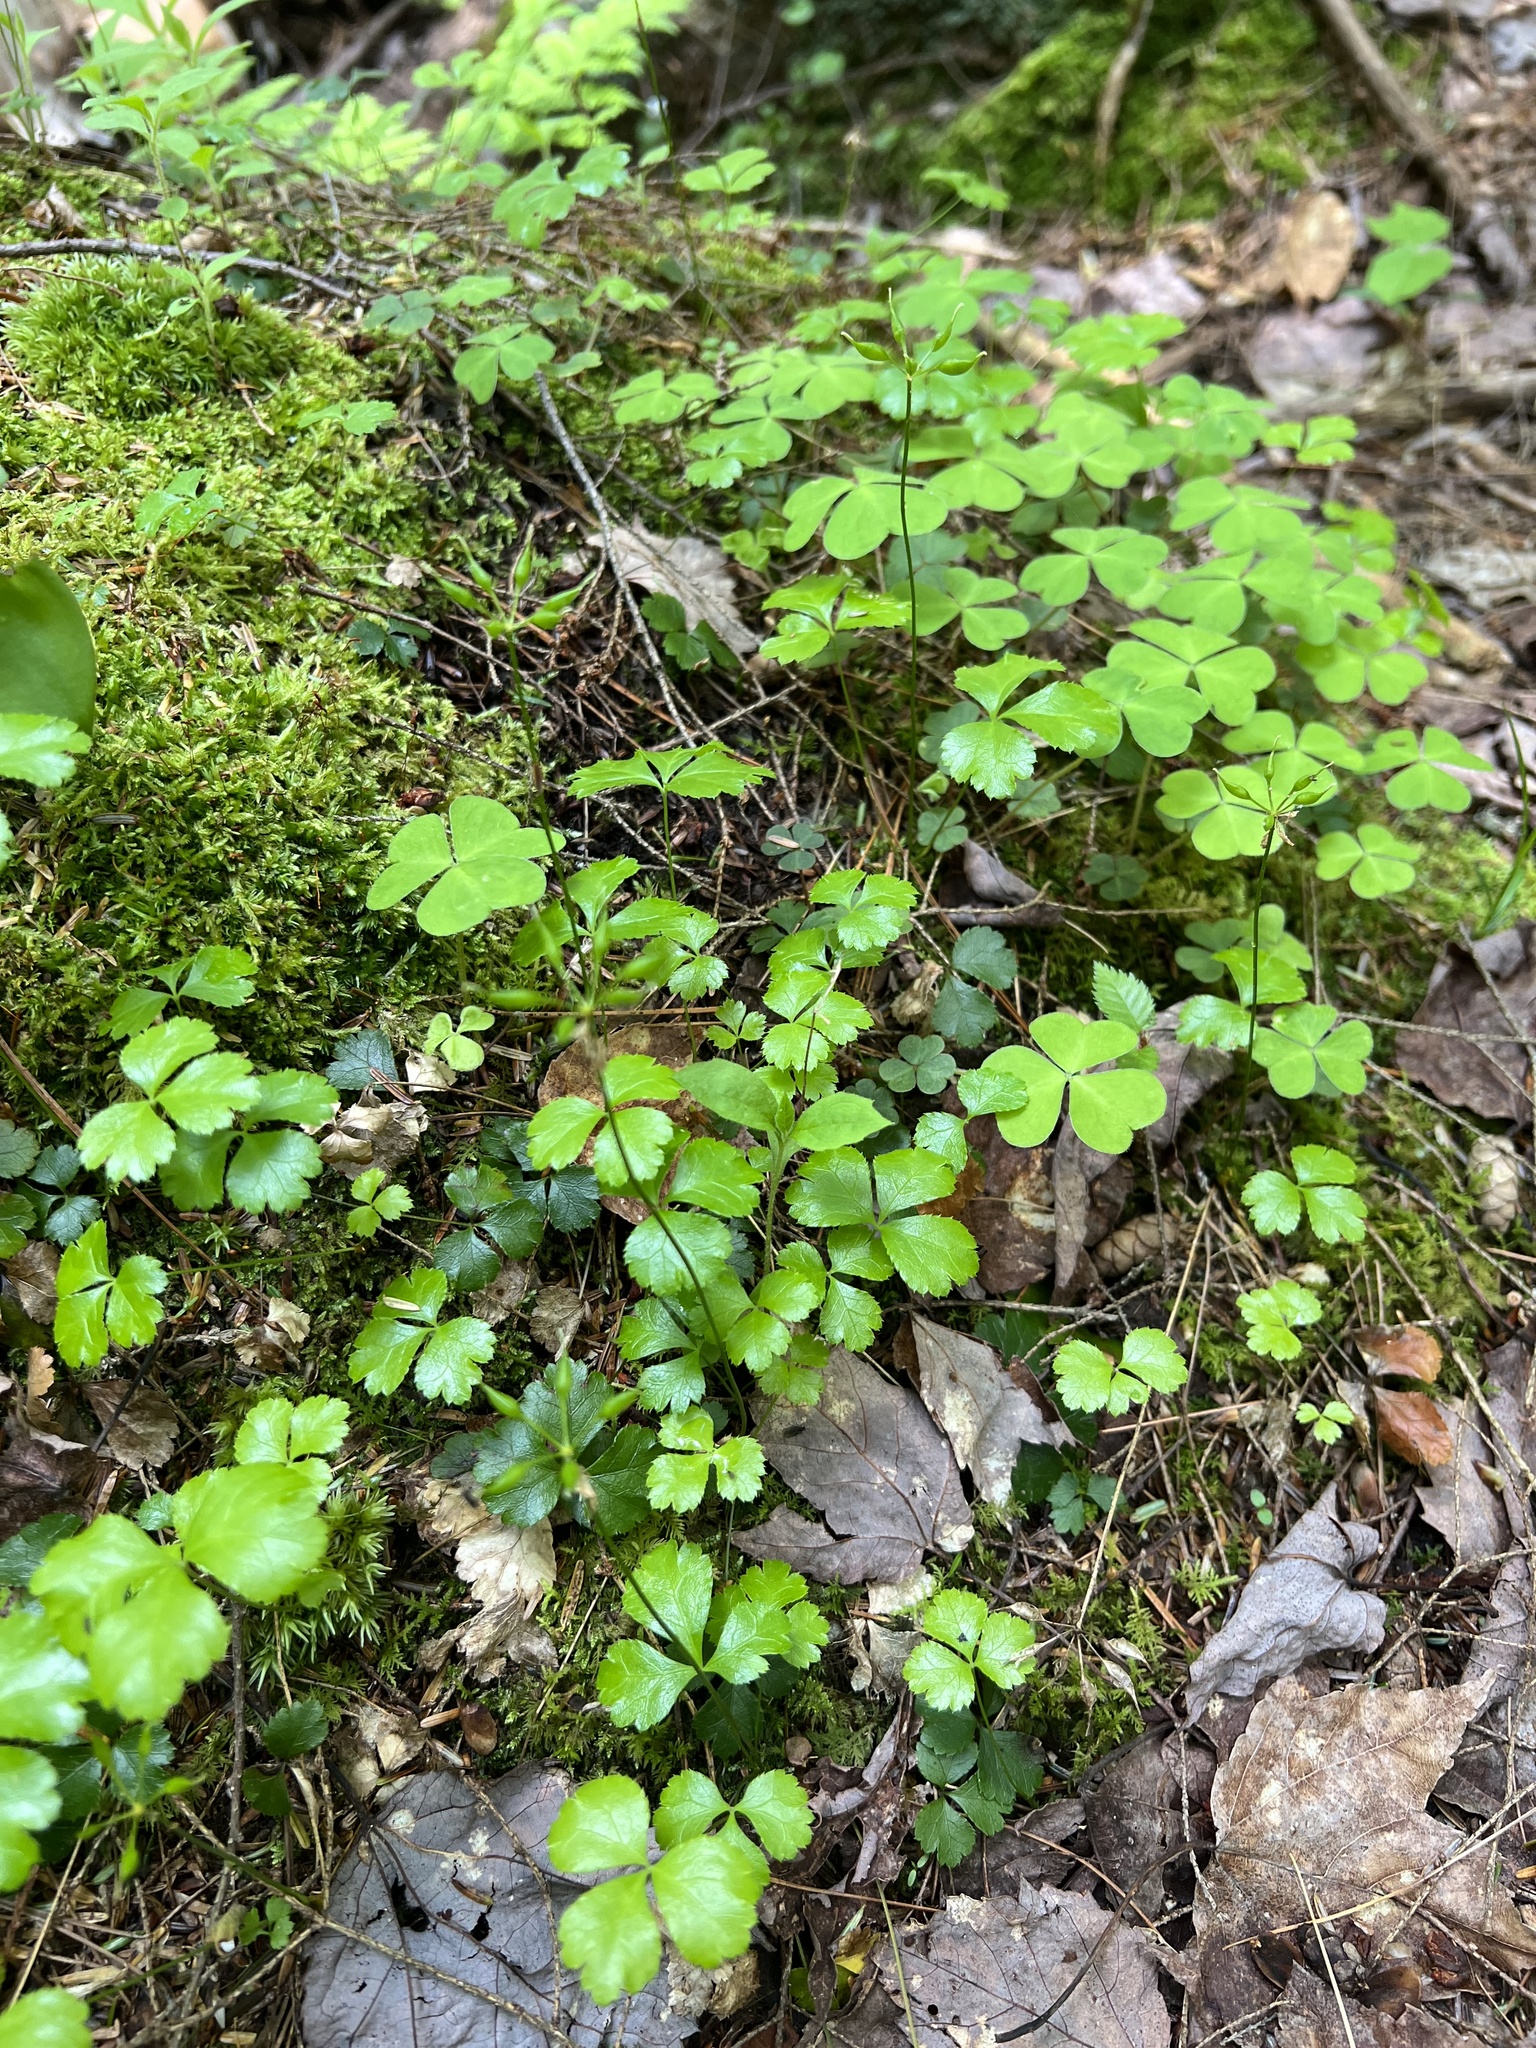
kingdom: Plantae
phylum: Tracheophyta
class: Magnoliopsida
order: Ranunculales
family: Ranunculaceae
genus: Coptis
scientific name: Coptis trifolia
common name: Canker-root
